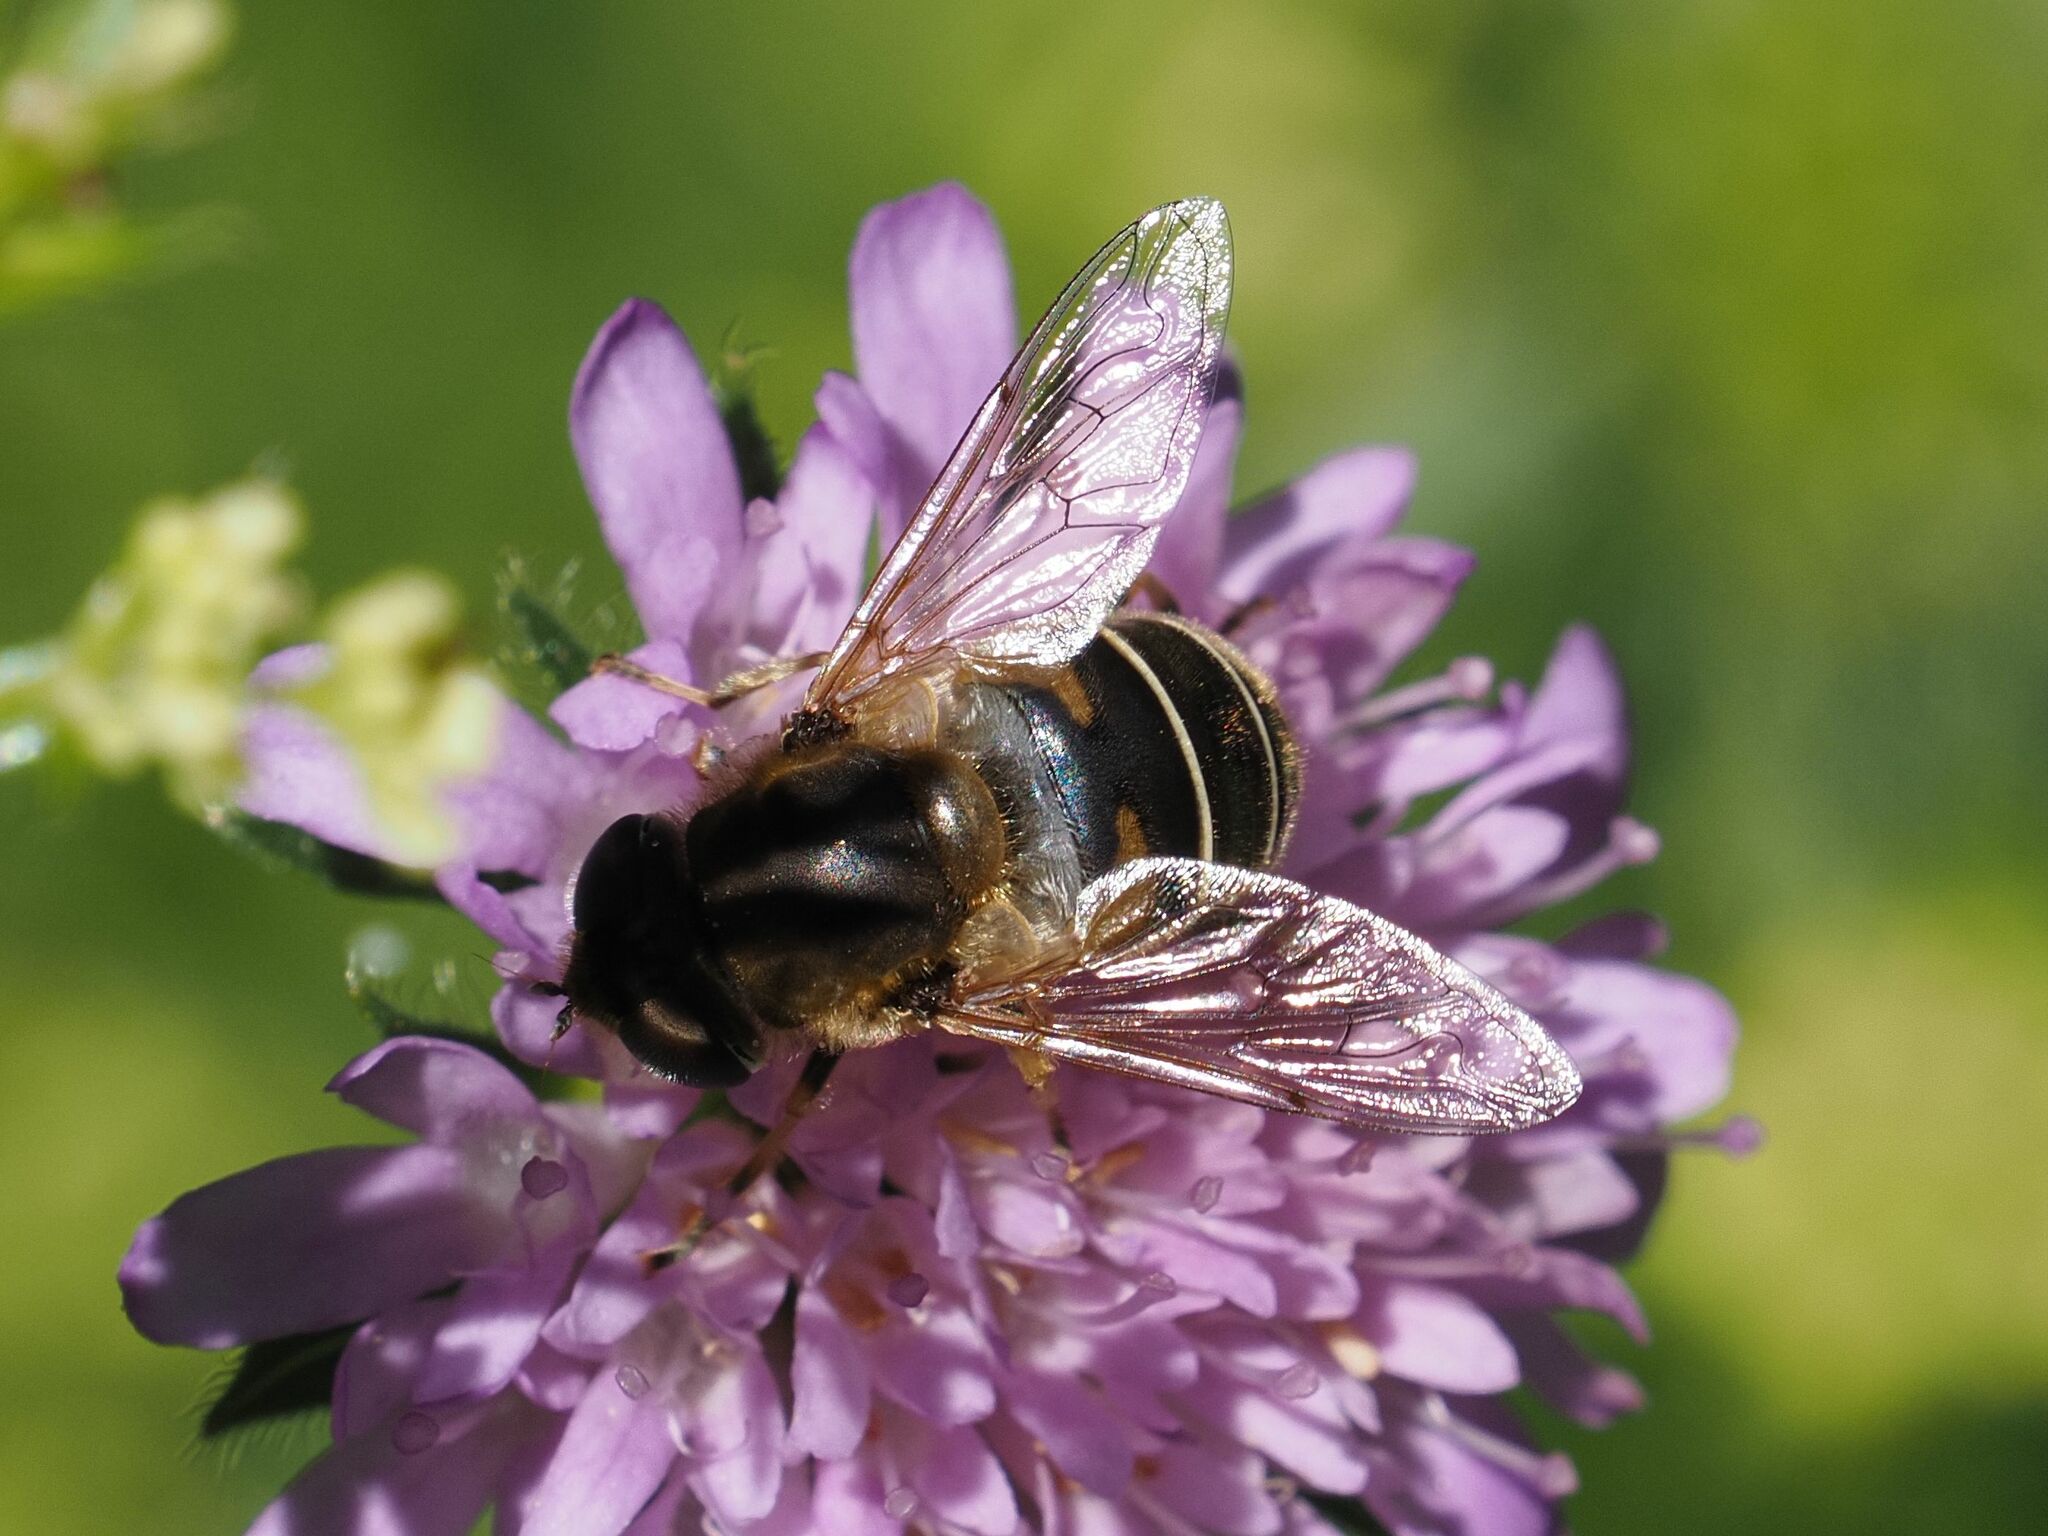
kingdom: Animalia
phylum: Arthropoda
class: Insecta
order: Diptera
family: Syrphidae
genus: Eristalis
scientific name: Eristalis nemorum
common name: Orange-spined drone fly
